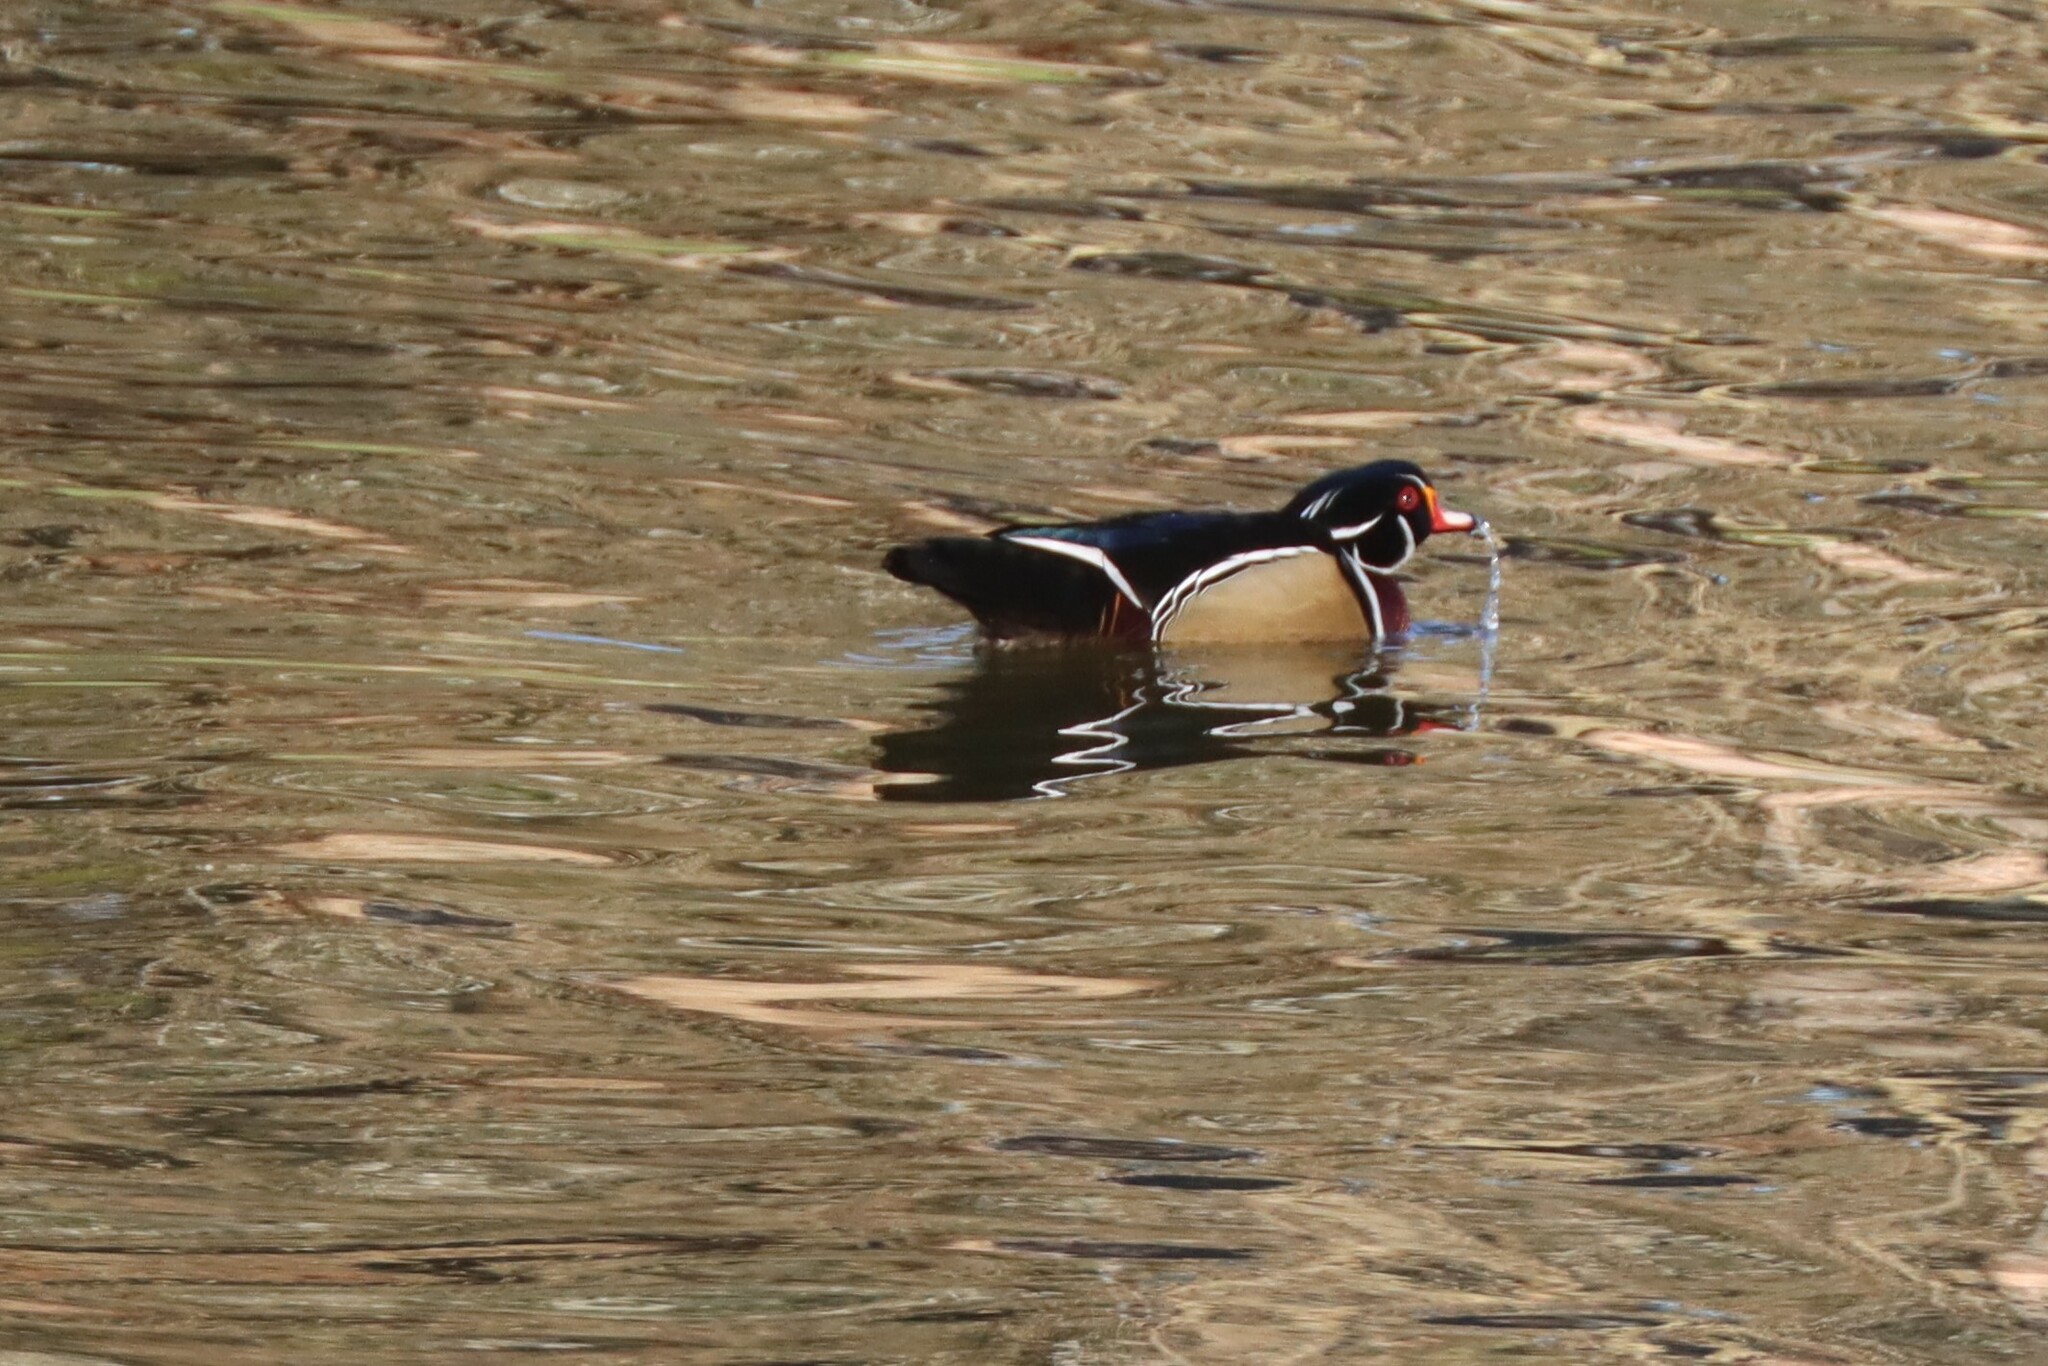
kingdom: Animalia
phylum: Chordata
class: Aves
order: Anseriformes
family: Anatidae
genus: Aix
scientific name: Aix sponsa
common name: Wood duck
